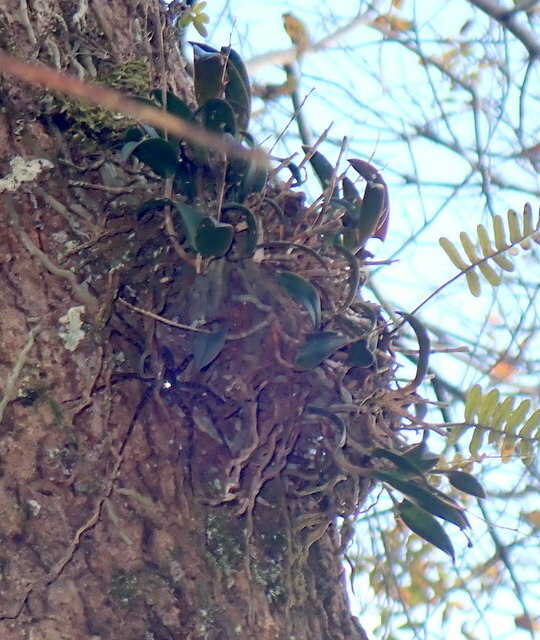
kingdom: Plantae
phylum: Tracheophyta
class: Liliopsida
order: Asparagales
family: Orchidaceae
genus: Epidendrum
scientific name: Epidendrum conopseum
